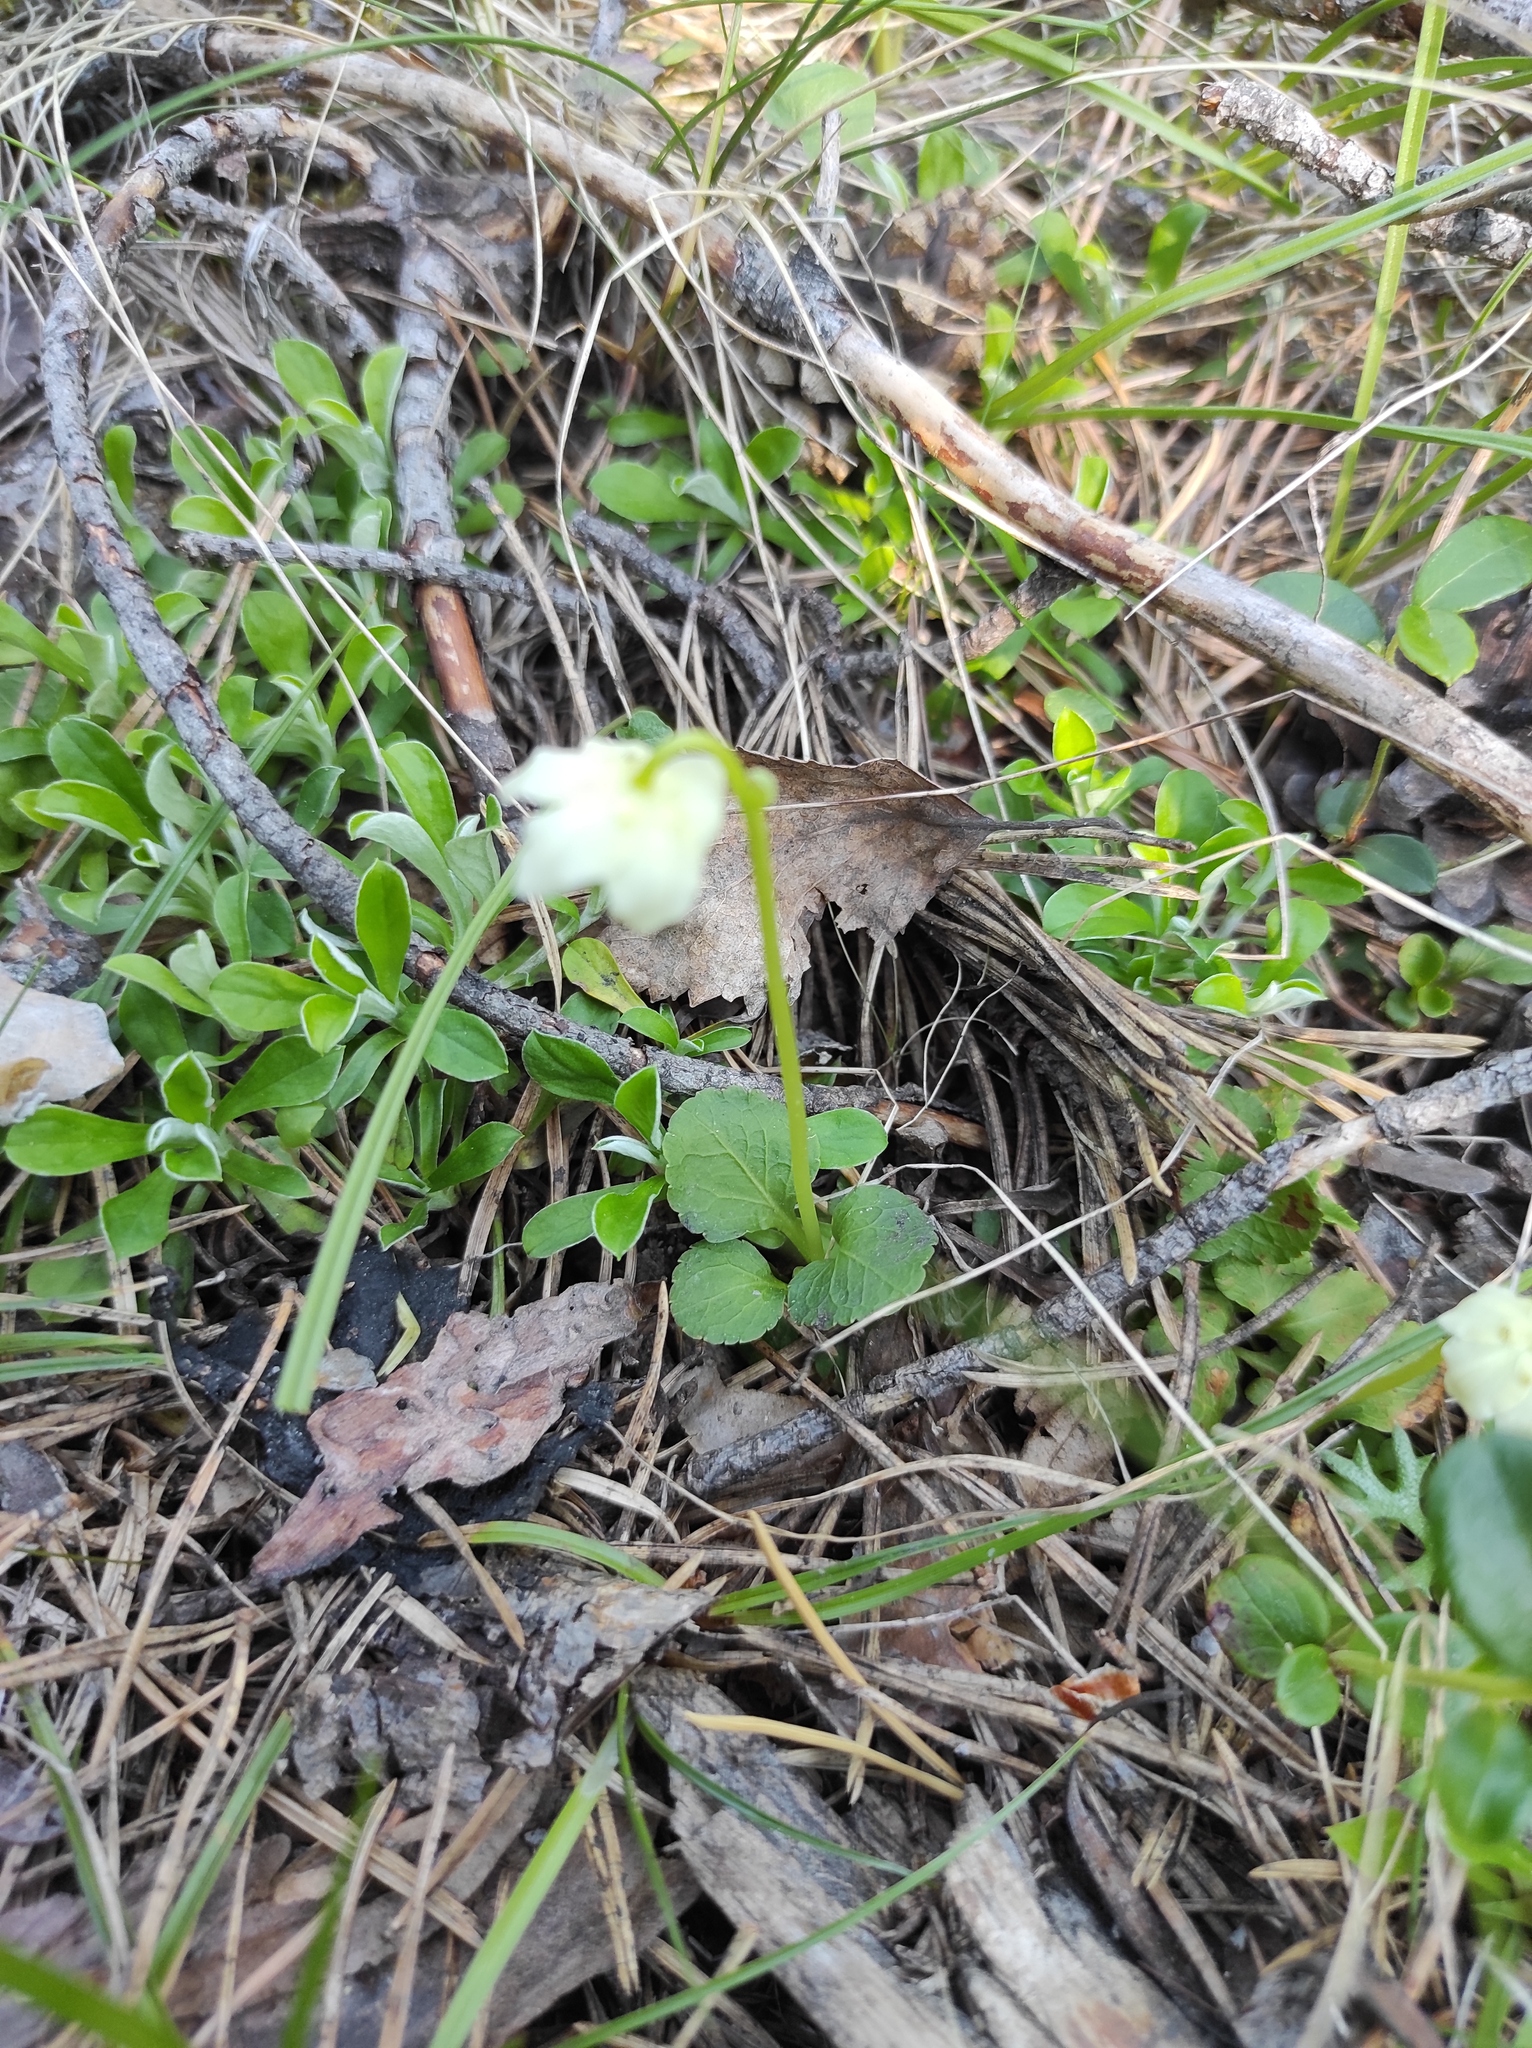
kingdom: Plantae
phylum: Tracheophyta
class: Magnoliopsida
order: Asterales
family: Asteraceae
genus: Antennaria
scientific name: Antennaria dioica
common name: Mountain everlasting
